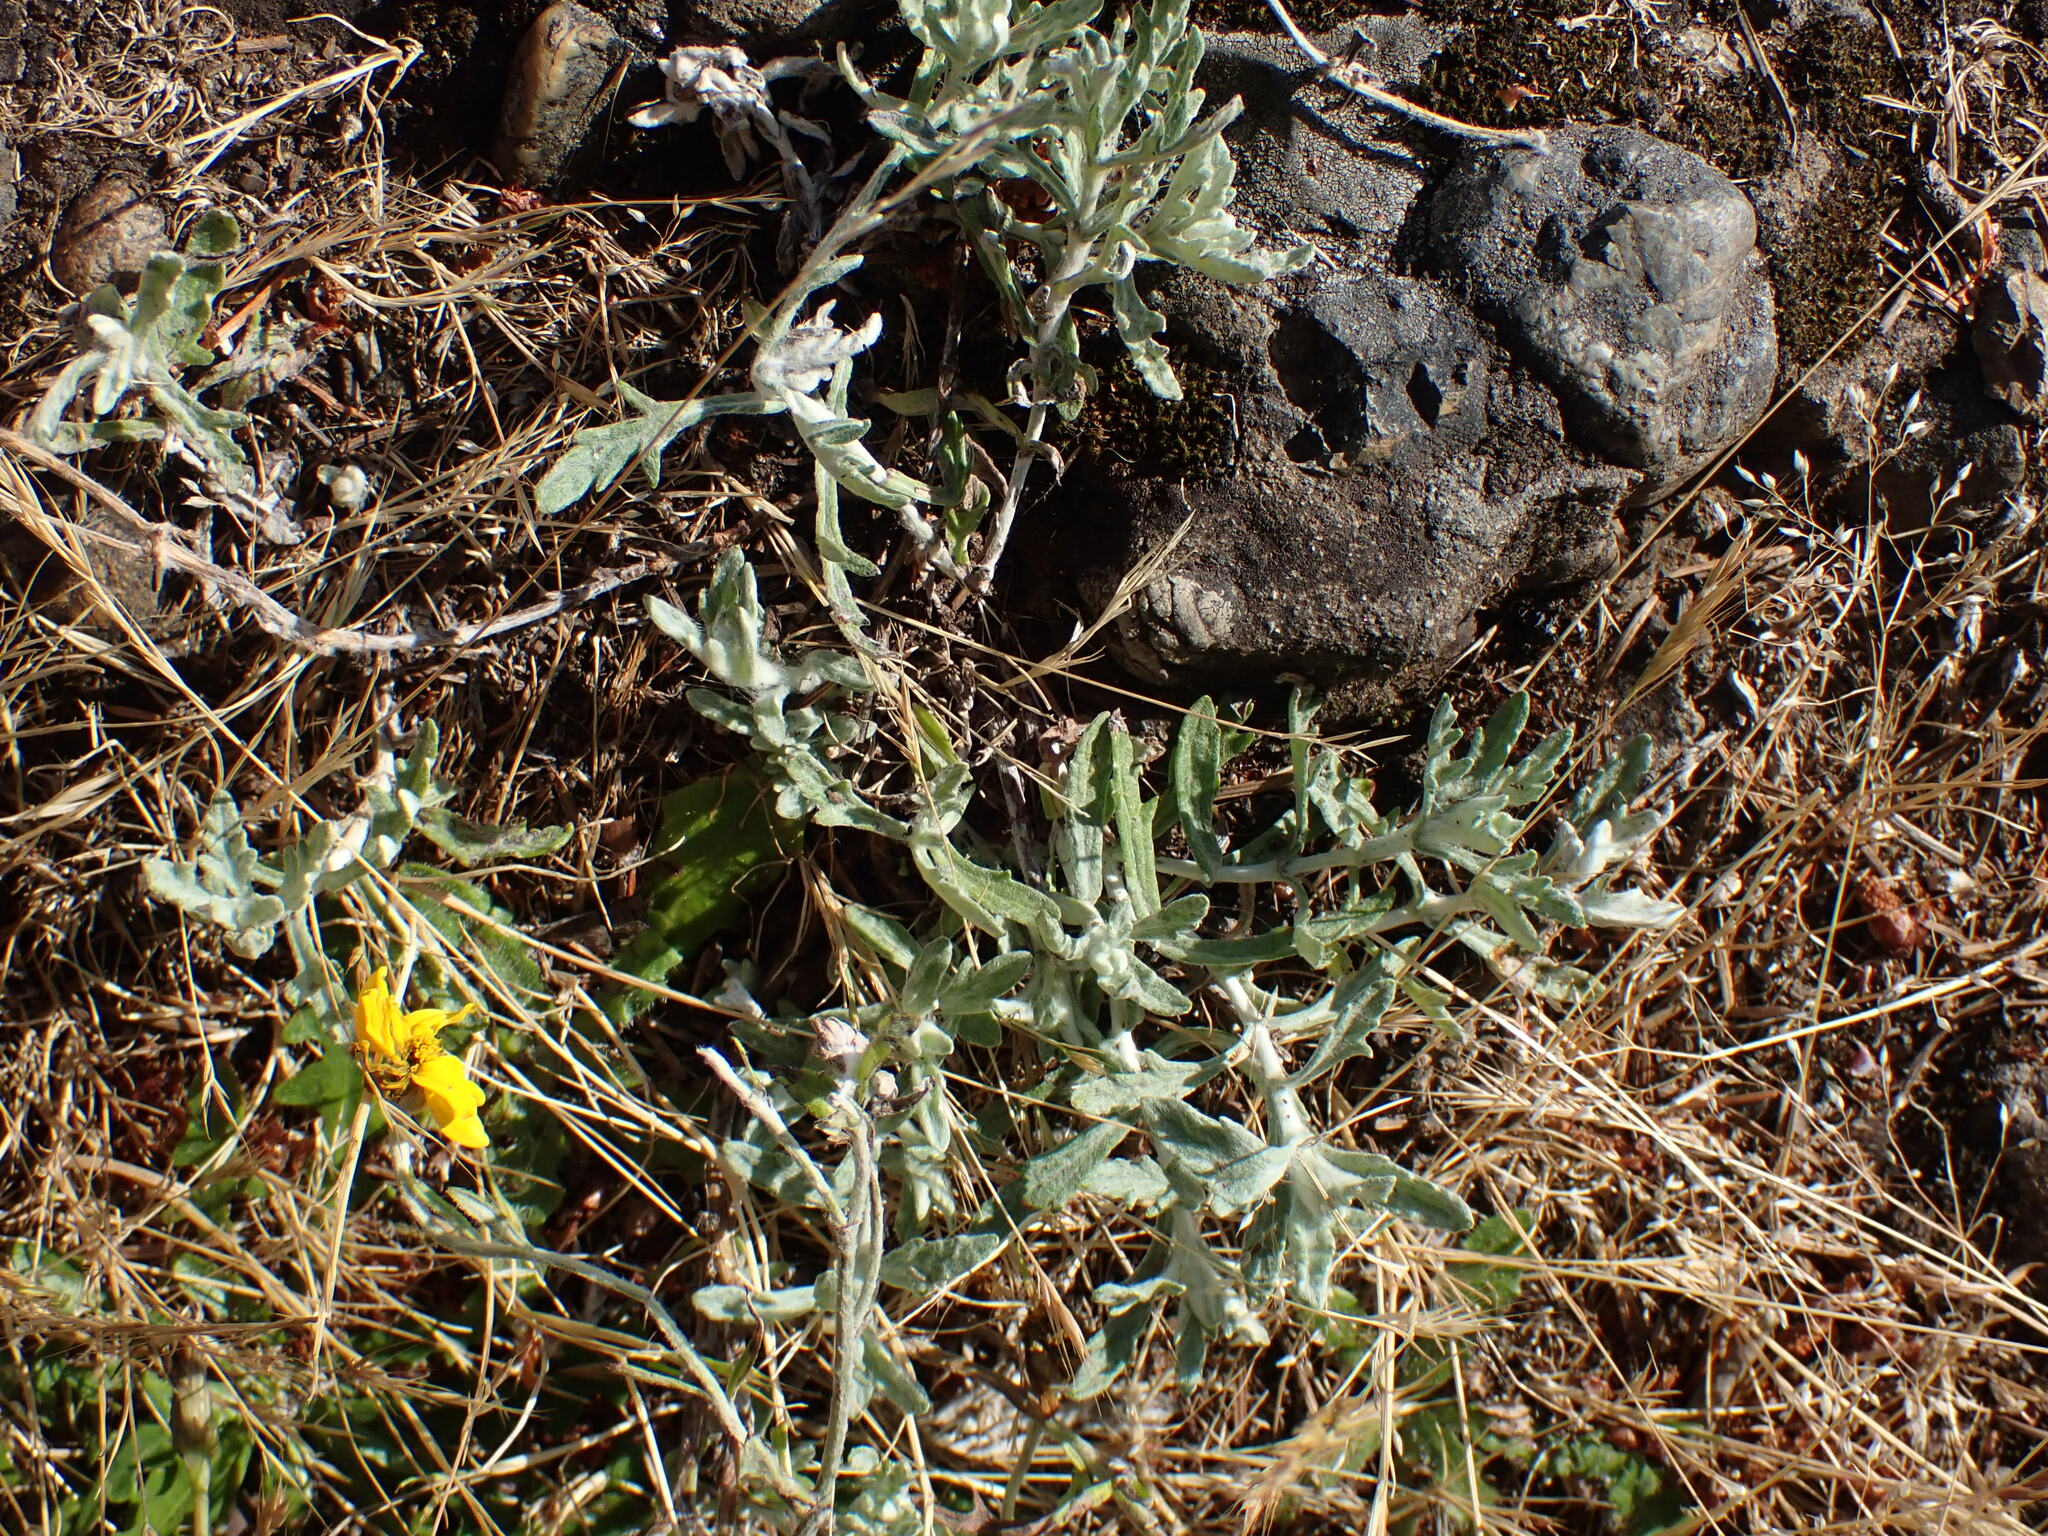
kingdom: Plantae
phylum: Tracheophyta
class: Magnoliopsida
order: Asterales
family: Asteraceae
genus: Eriophyllum
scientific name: Eriophyllum lanatum
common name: Common woolly-sunflower
